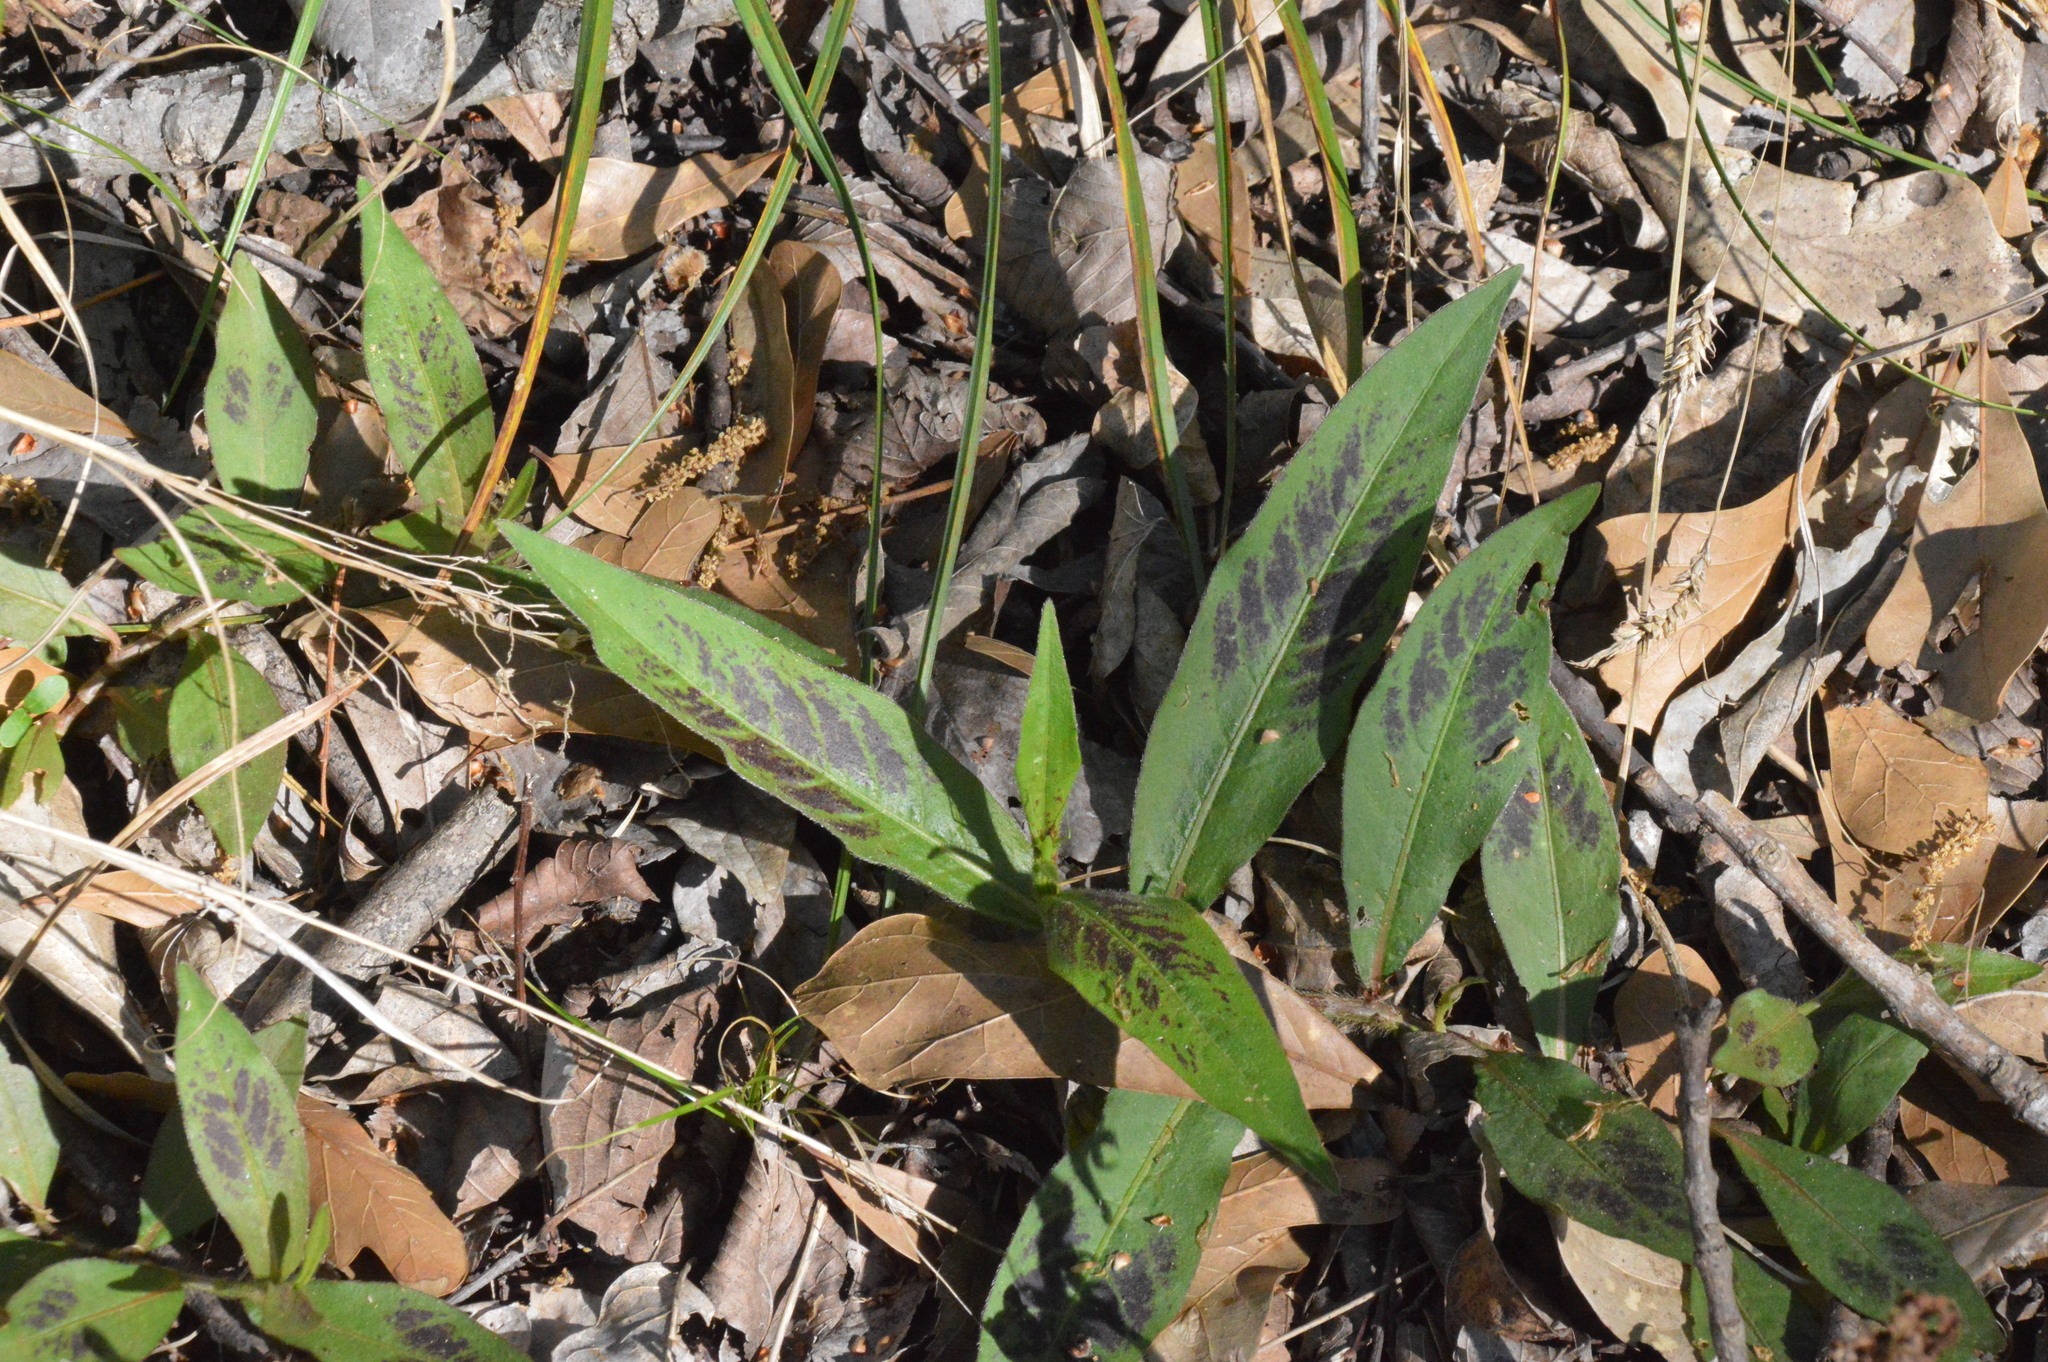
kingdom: Plantae
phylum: Tracheophyta
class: Magnoliopsida
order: Caryophyllales
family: Polygonaceae
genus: Persicaria
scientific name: Persicaria virginiana
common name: Jumpseed
